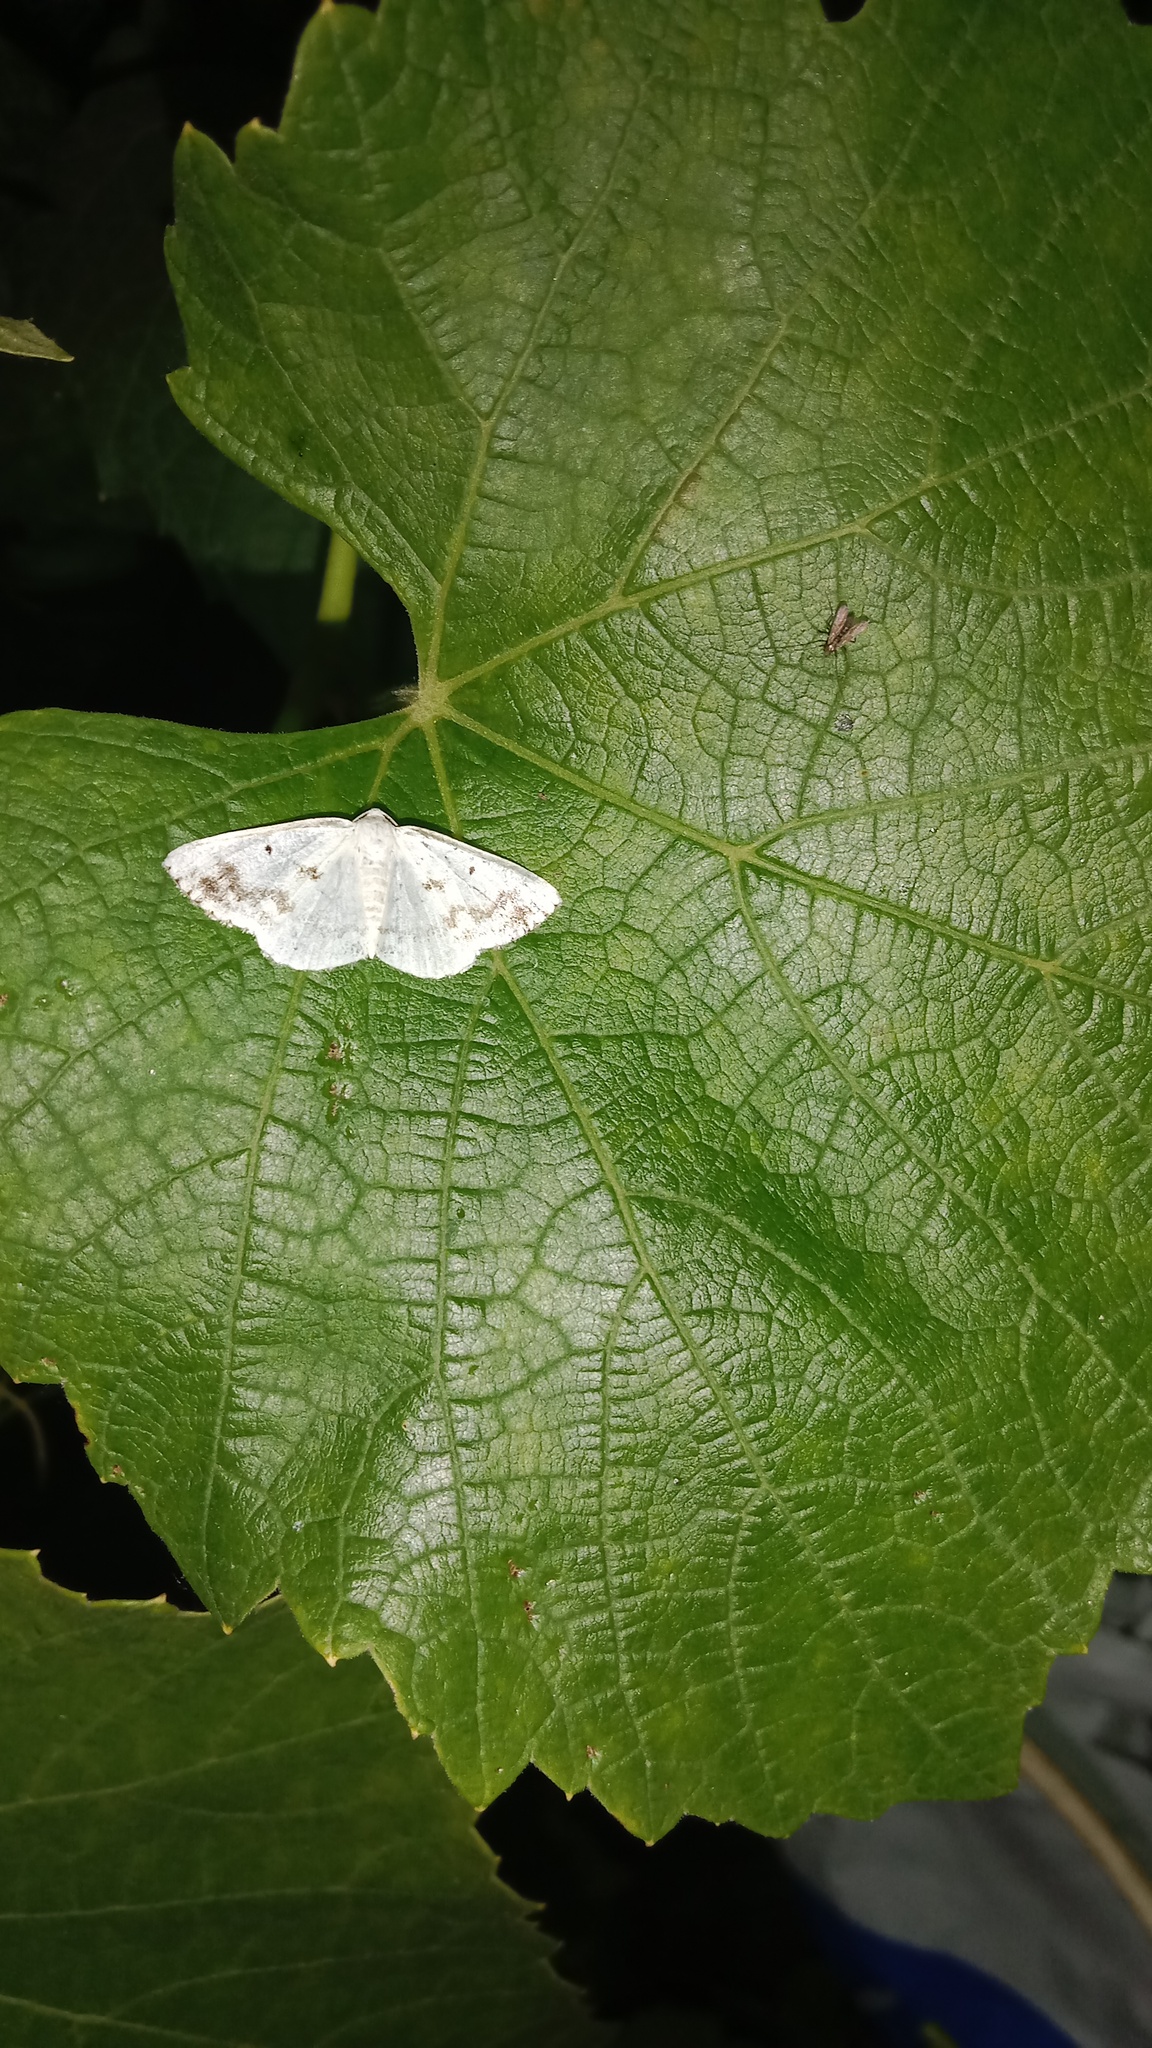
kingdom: Animalia
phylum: Arthropoda
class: Insecta
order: Lepidoptera
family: Geometridae
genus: Lomographa
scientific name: Lomographa temerata
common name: Clouded silver
